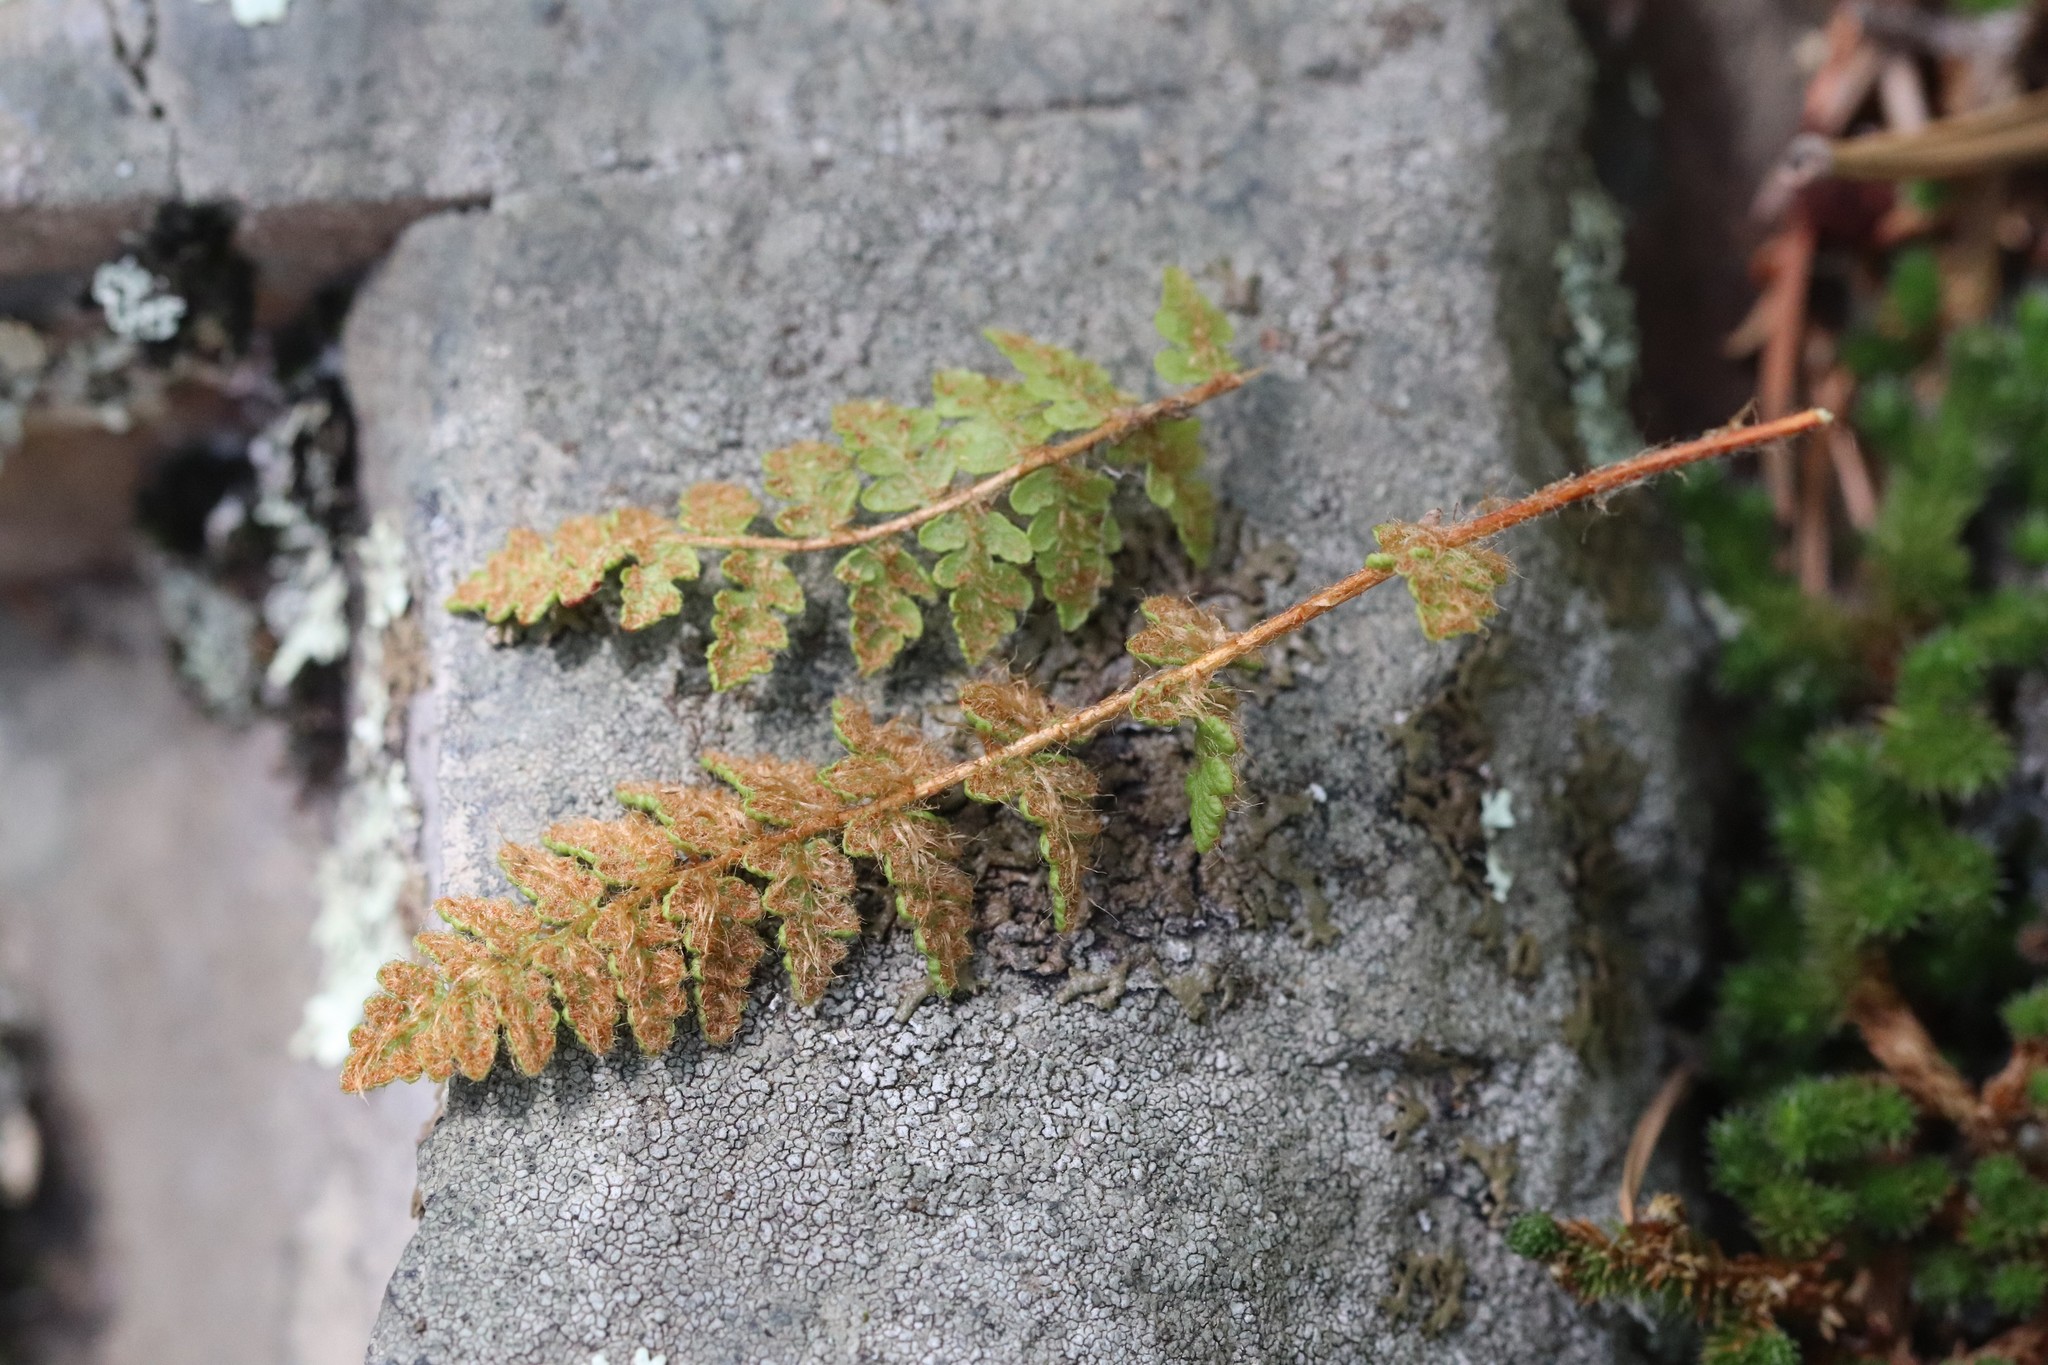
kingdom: Plantae
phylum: Tracheophyta
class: Polypodiopsida
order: Polypodiales
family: Woodsiaceae
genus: Woodsia
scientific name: Woodsia ilvensis
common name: Fragrant woodsia
